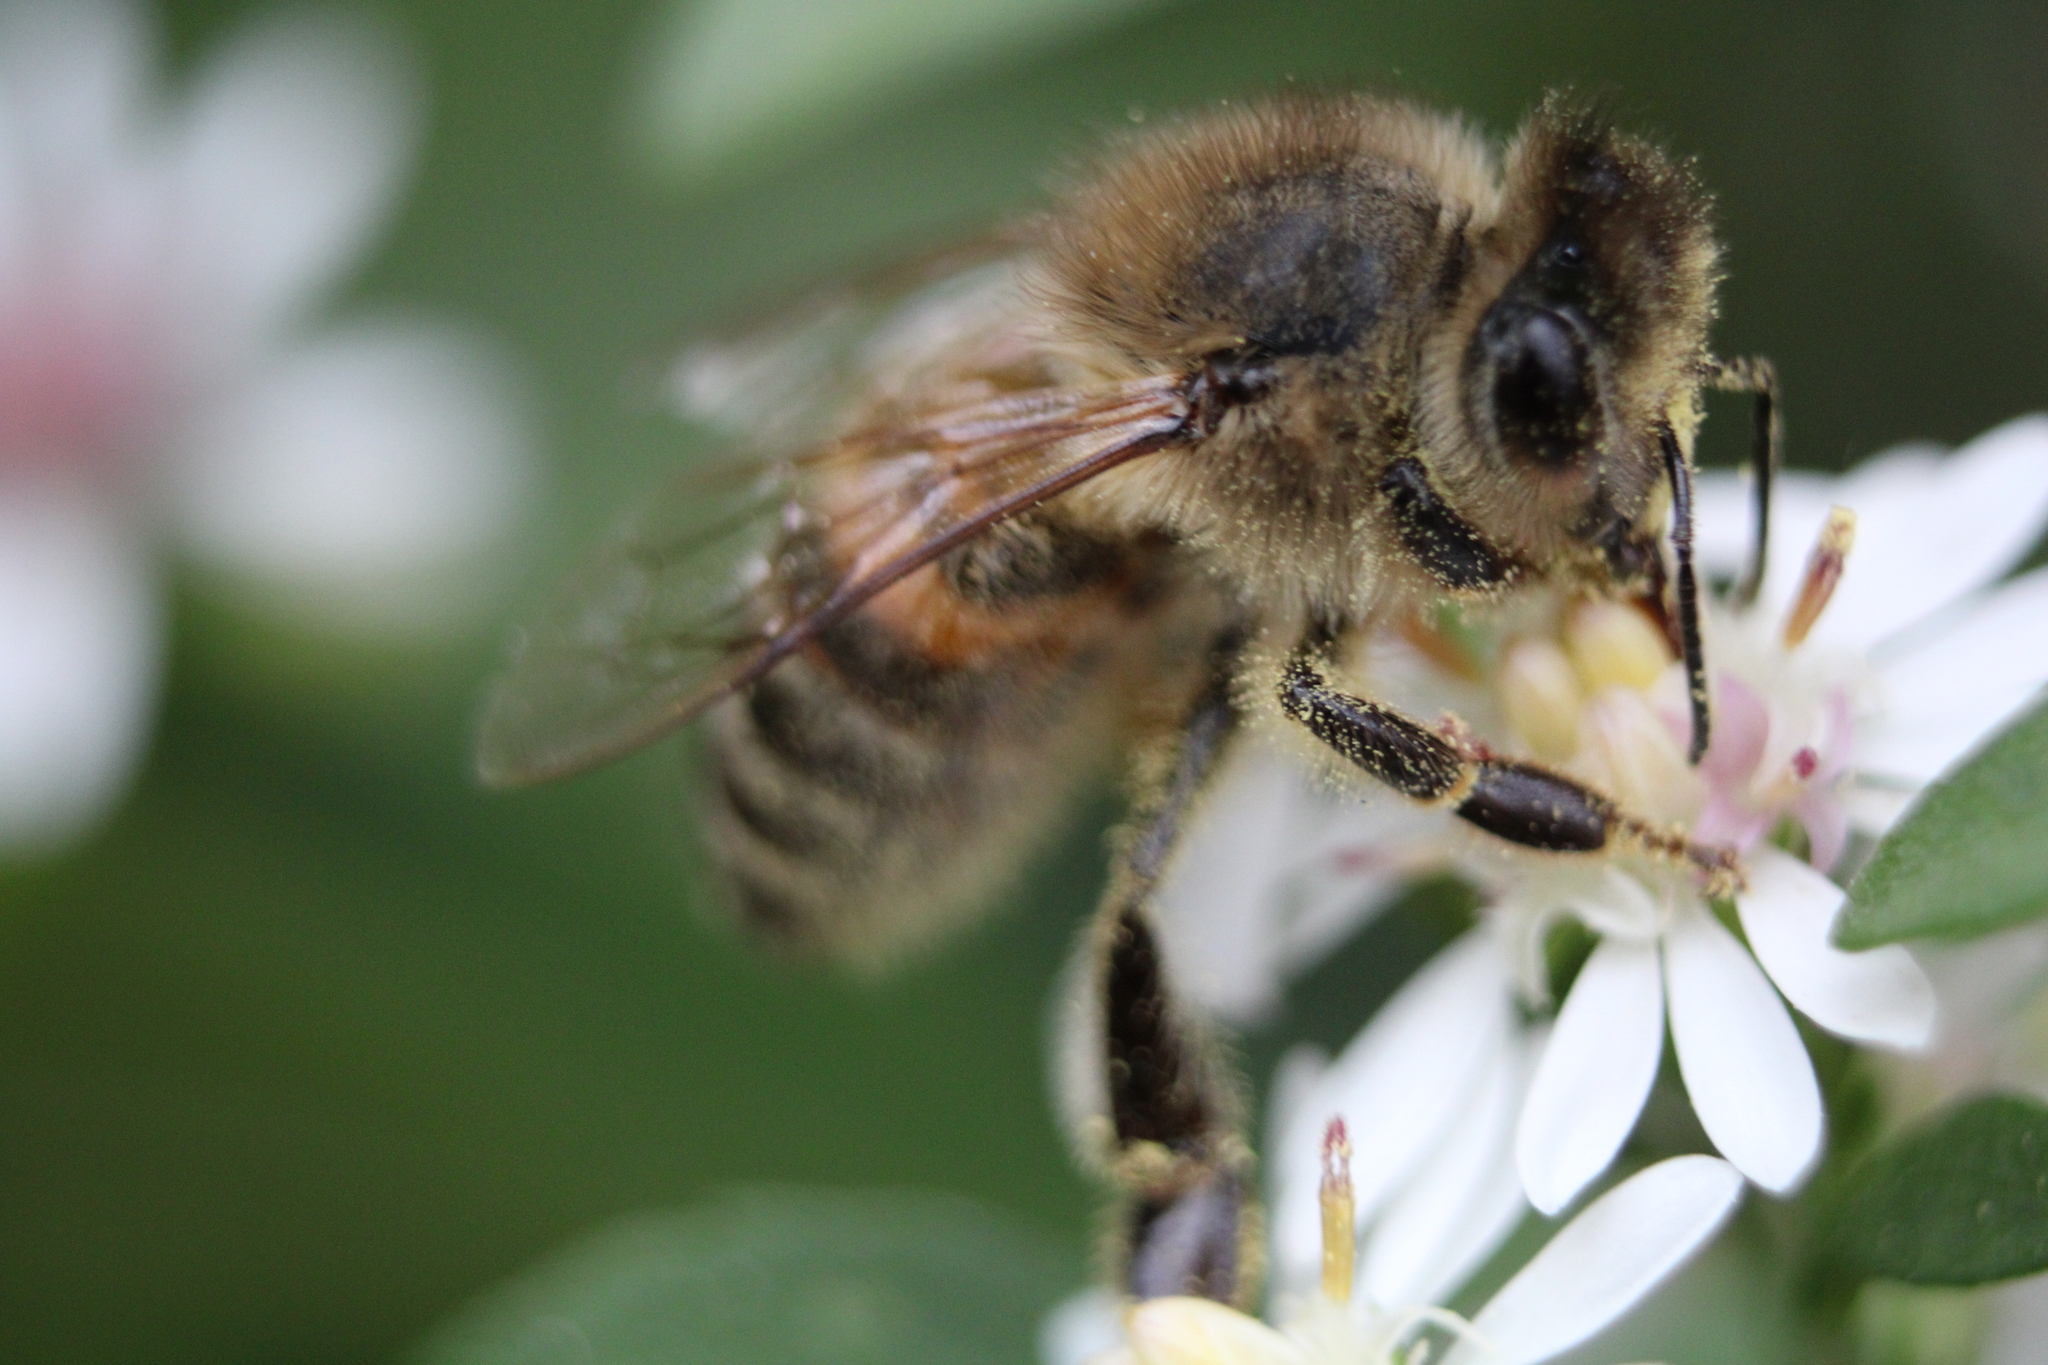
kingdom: Animalia
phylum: Arthropoda
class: Insecta
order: Hymenoptera
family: Apidae
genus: Apis
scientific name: Apis mellifera
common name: Honey bee
